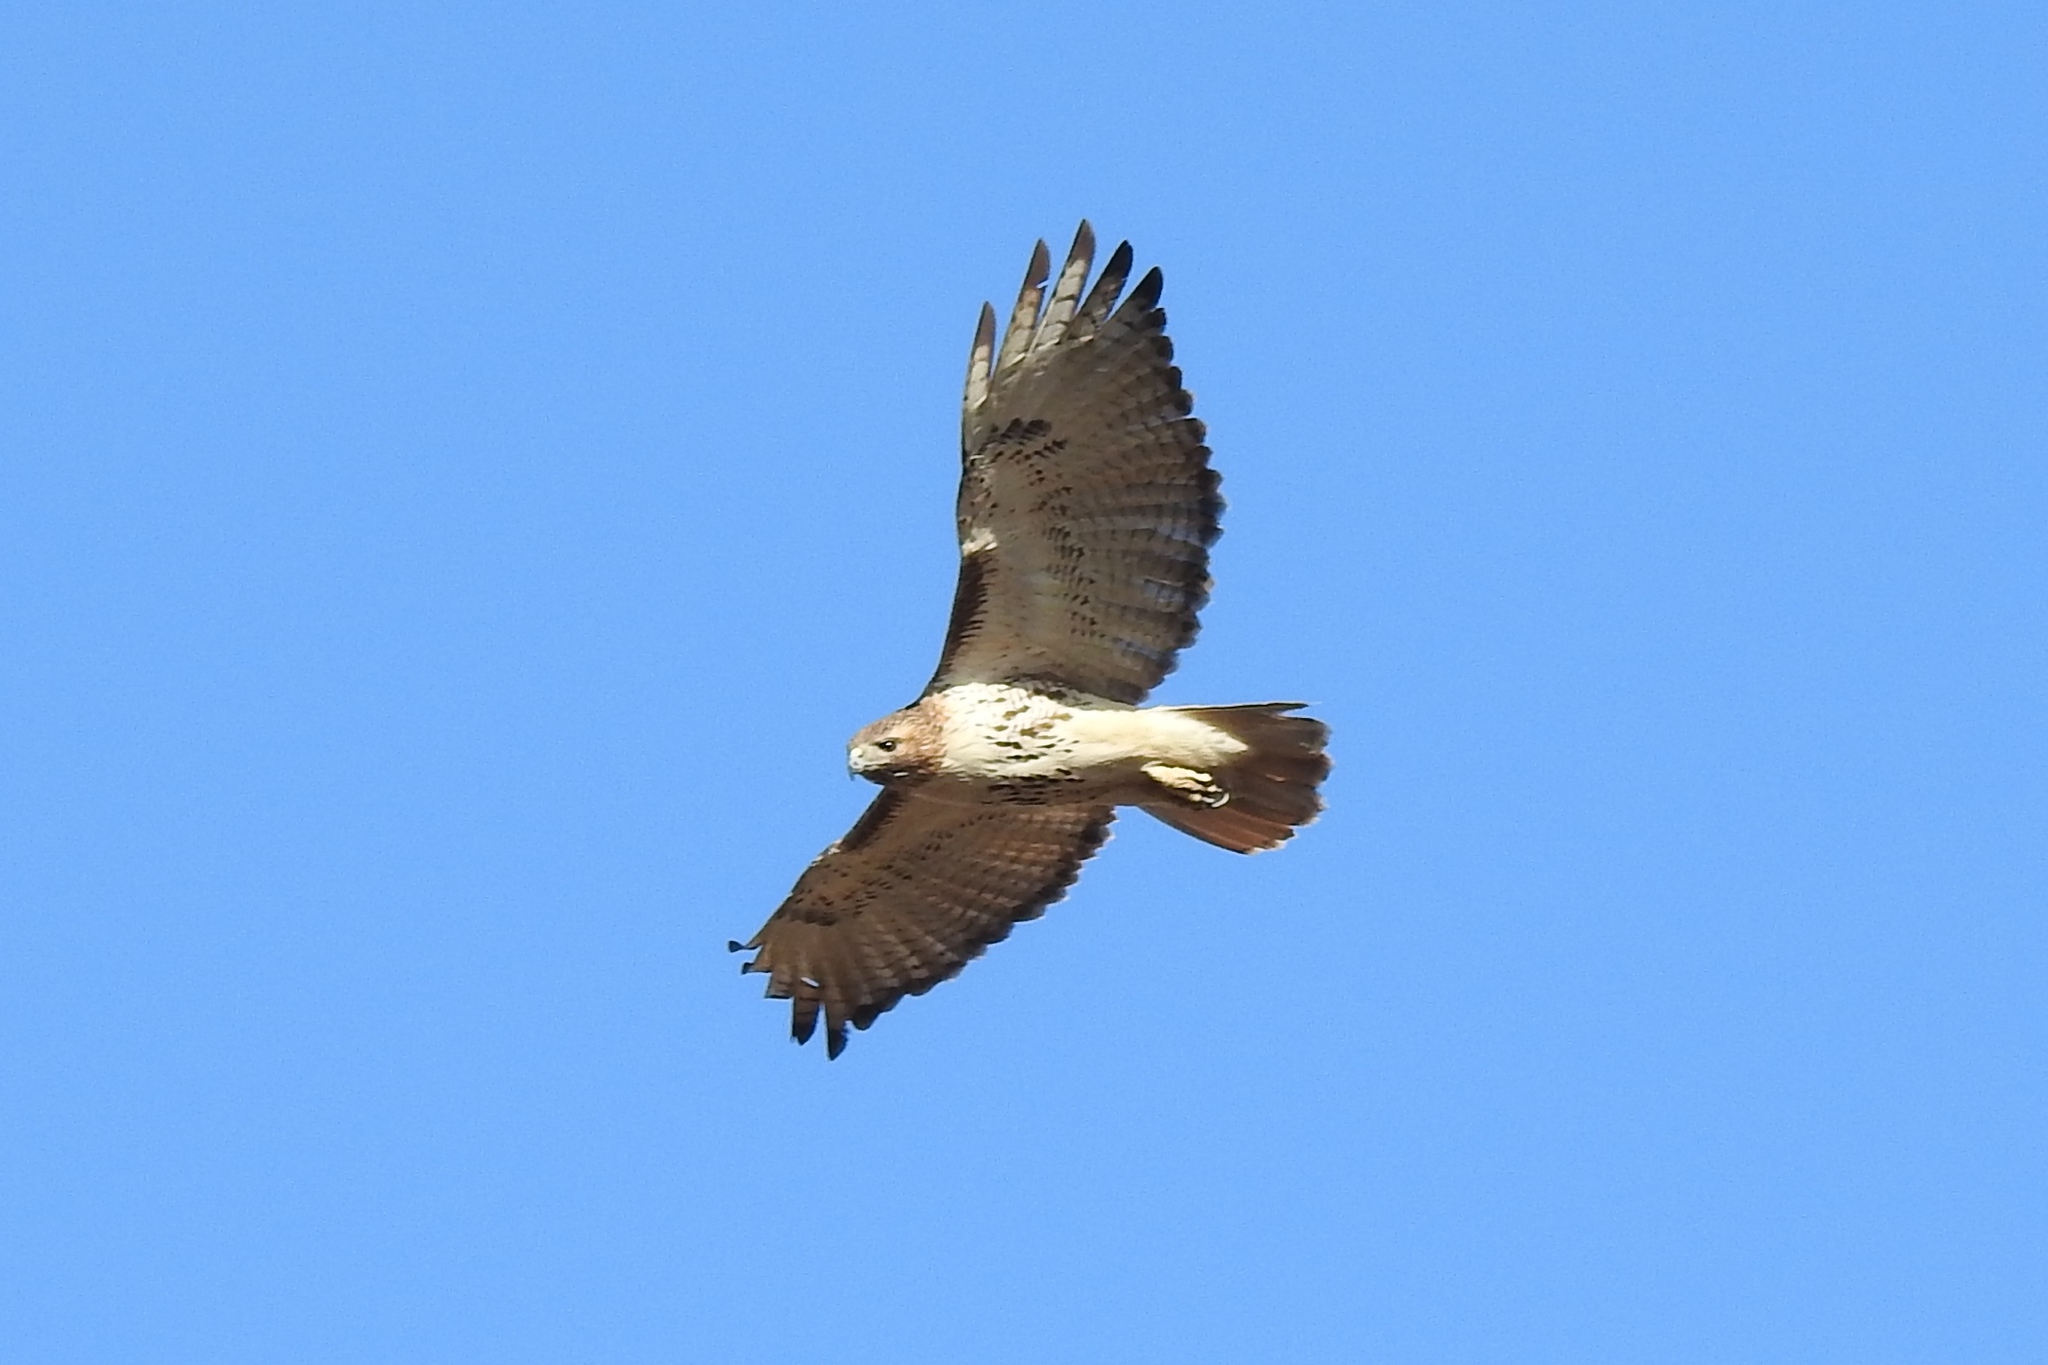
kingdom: Animalia
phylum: Chordata
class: Aves
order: Accipitriformes
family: Accipitridae
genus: Buteo
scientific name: Buteo jamaicensis
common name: Red-tailed hawk
